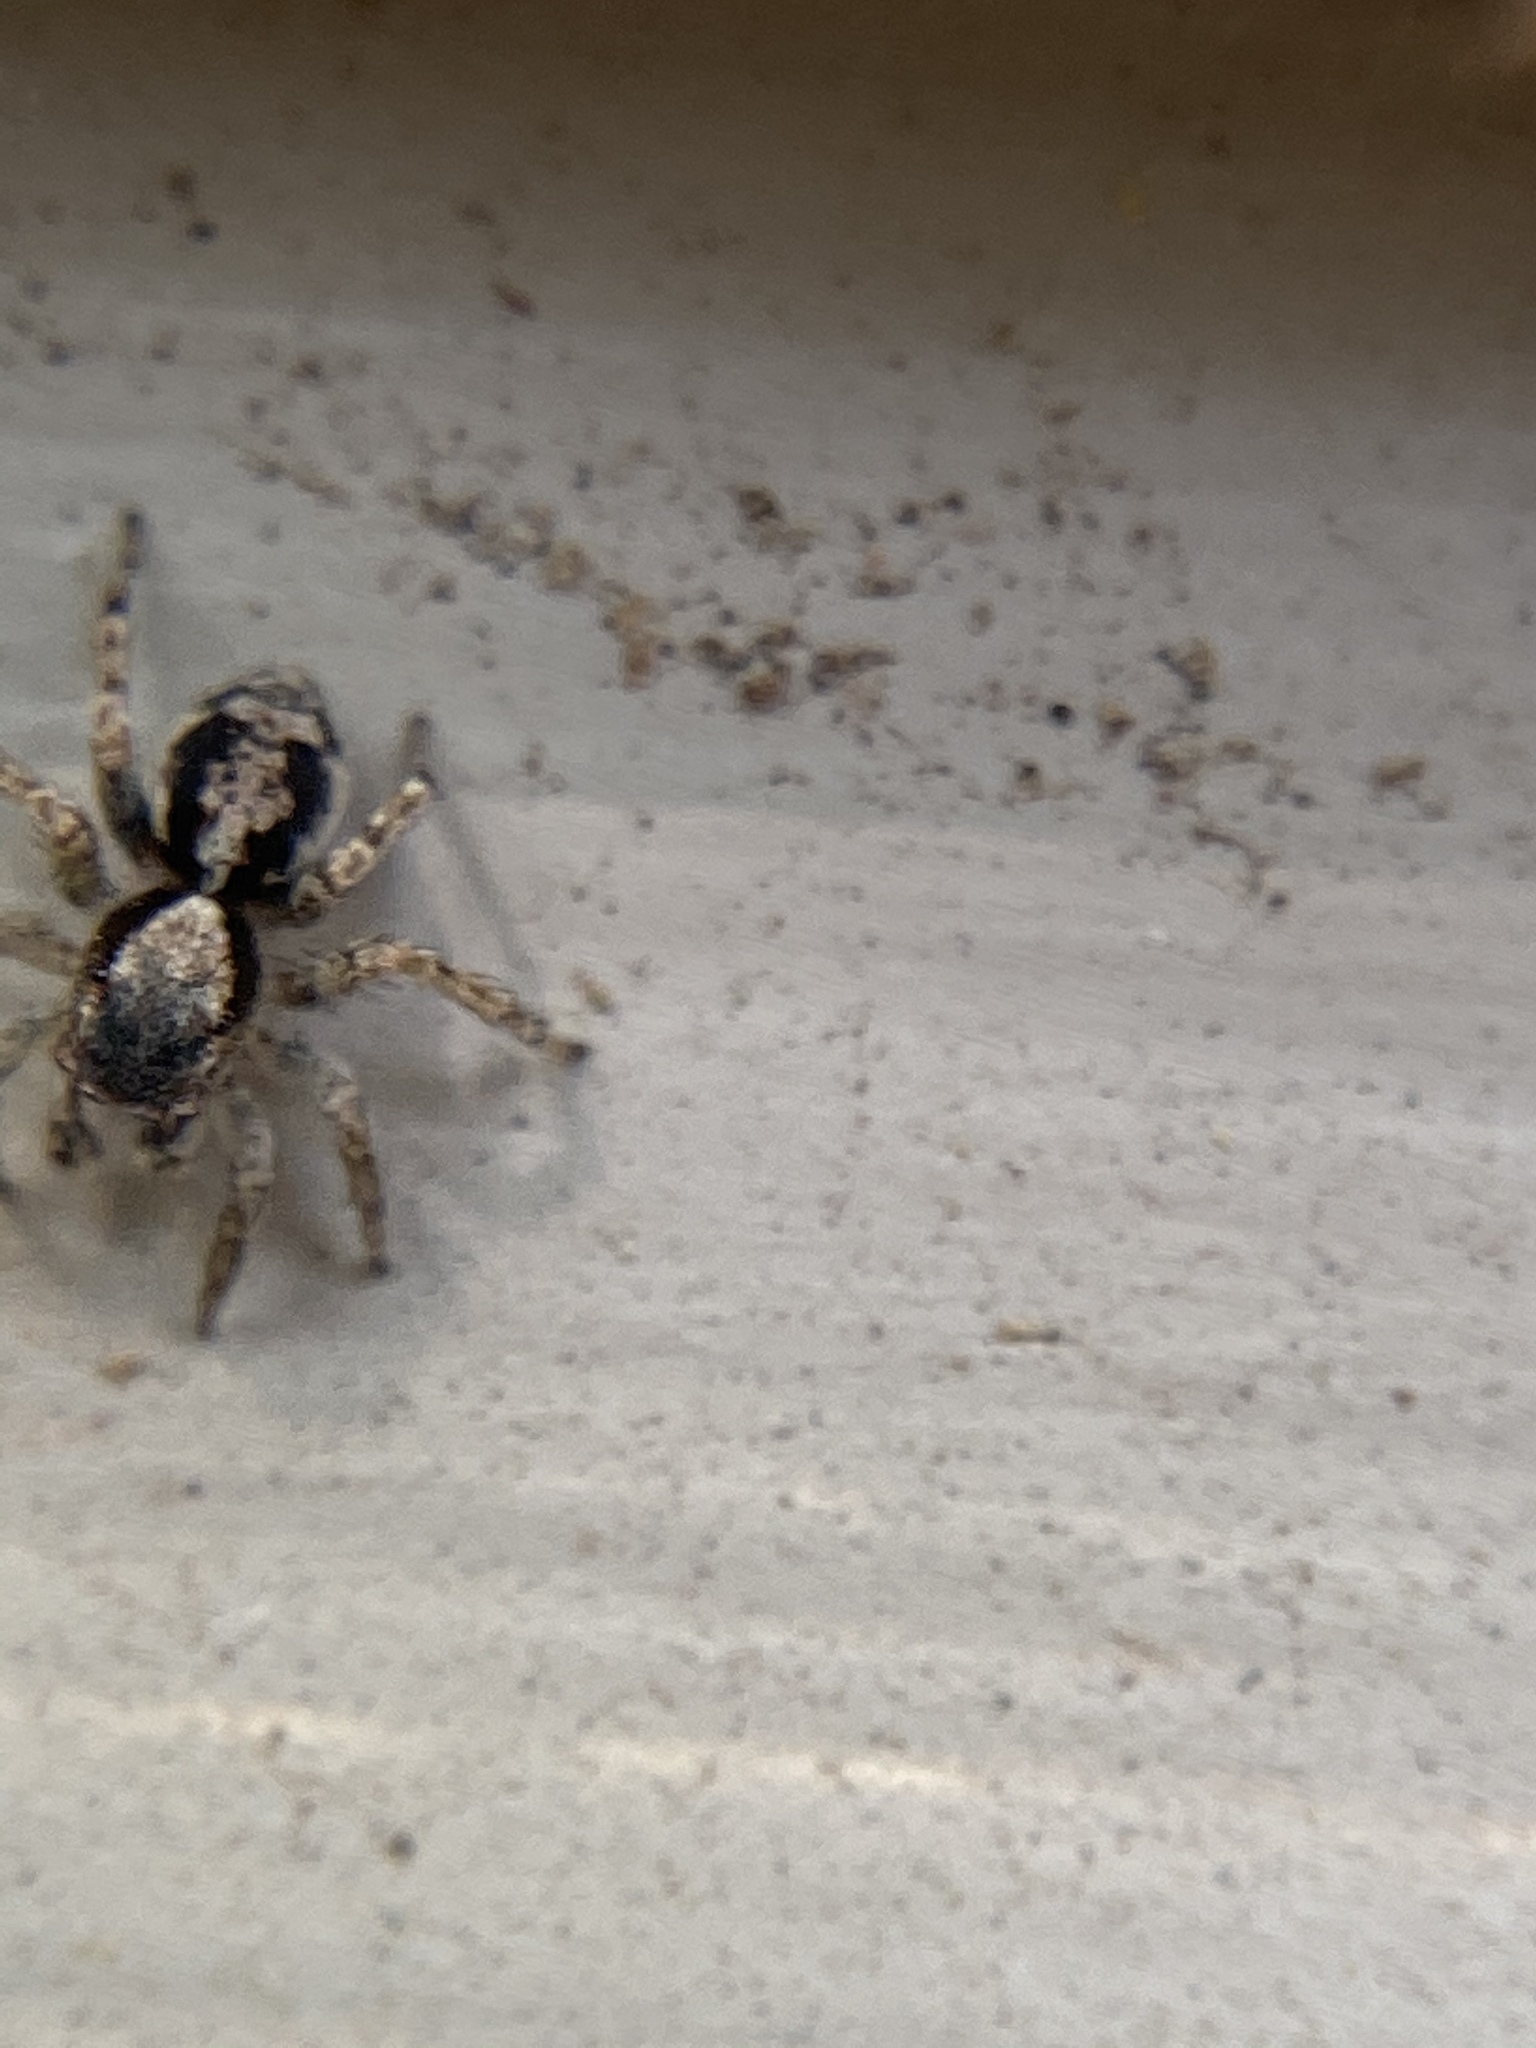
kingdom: Animalia
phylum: Arthropoda
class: Arachnida
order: Araneae
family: Salticidae
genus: Naphrys
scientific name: Naphrys pulex
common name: Flea jumping spider
